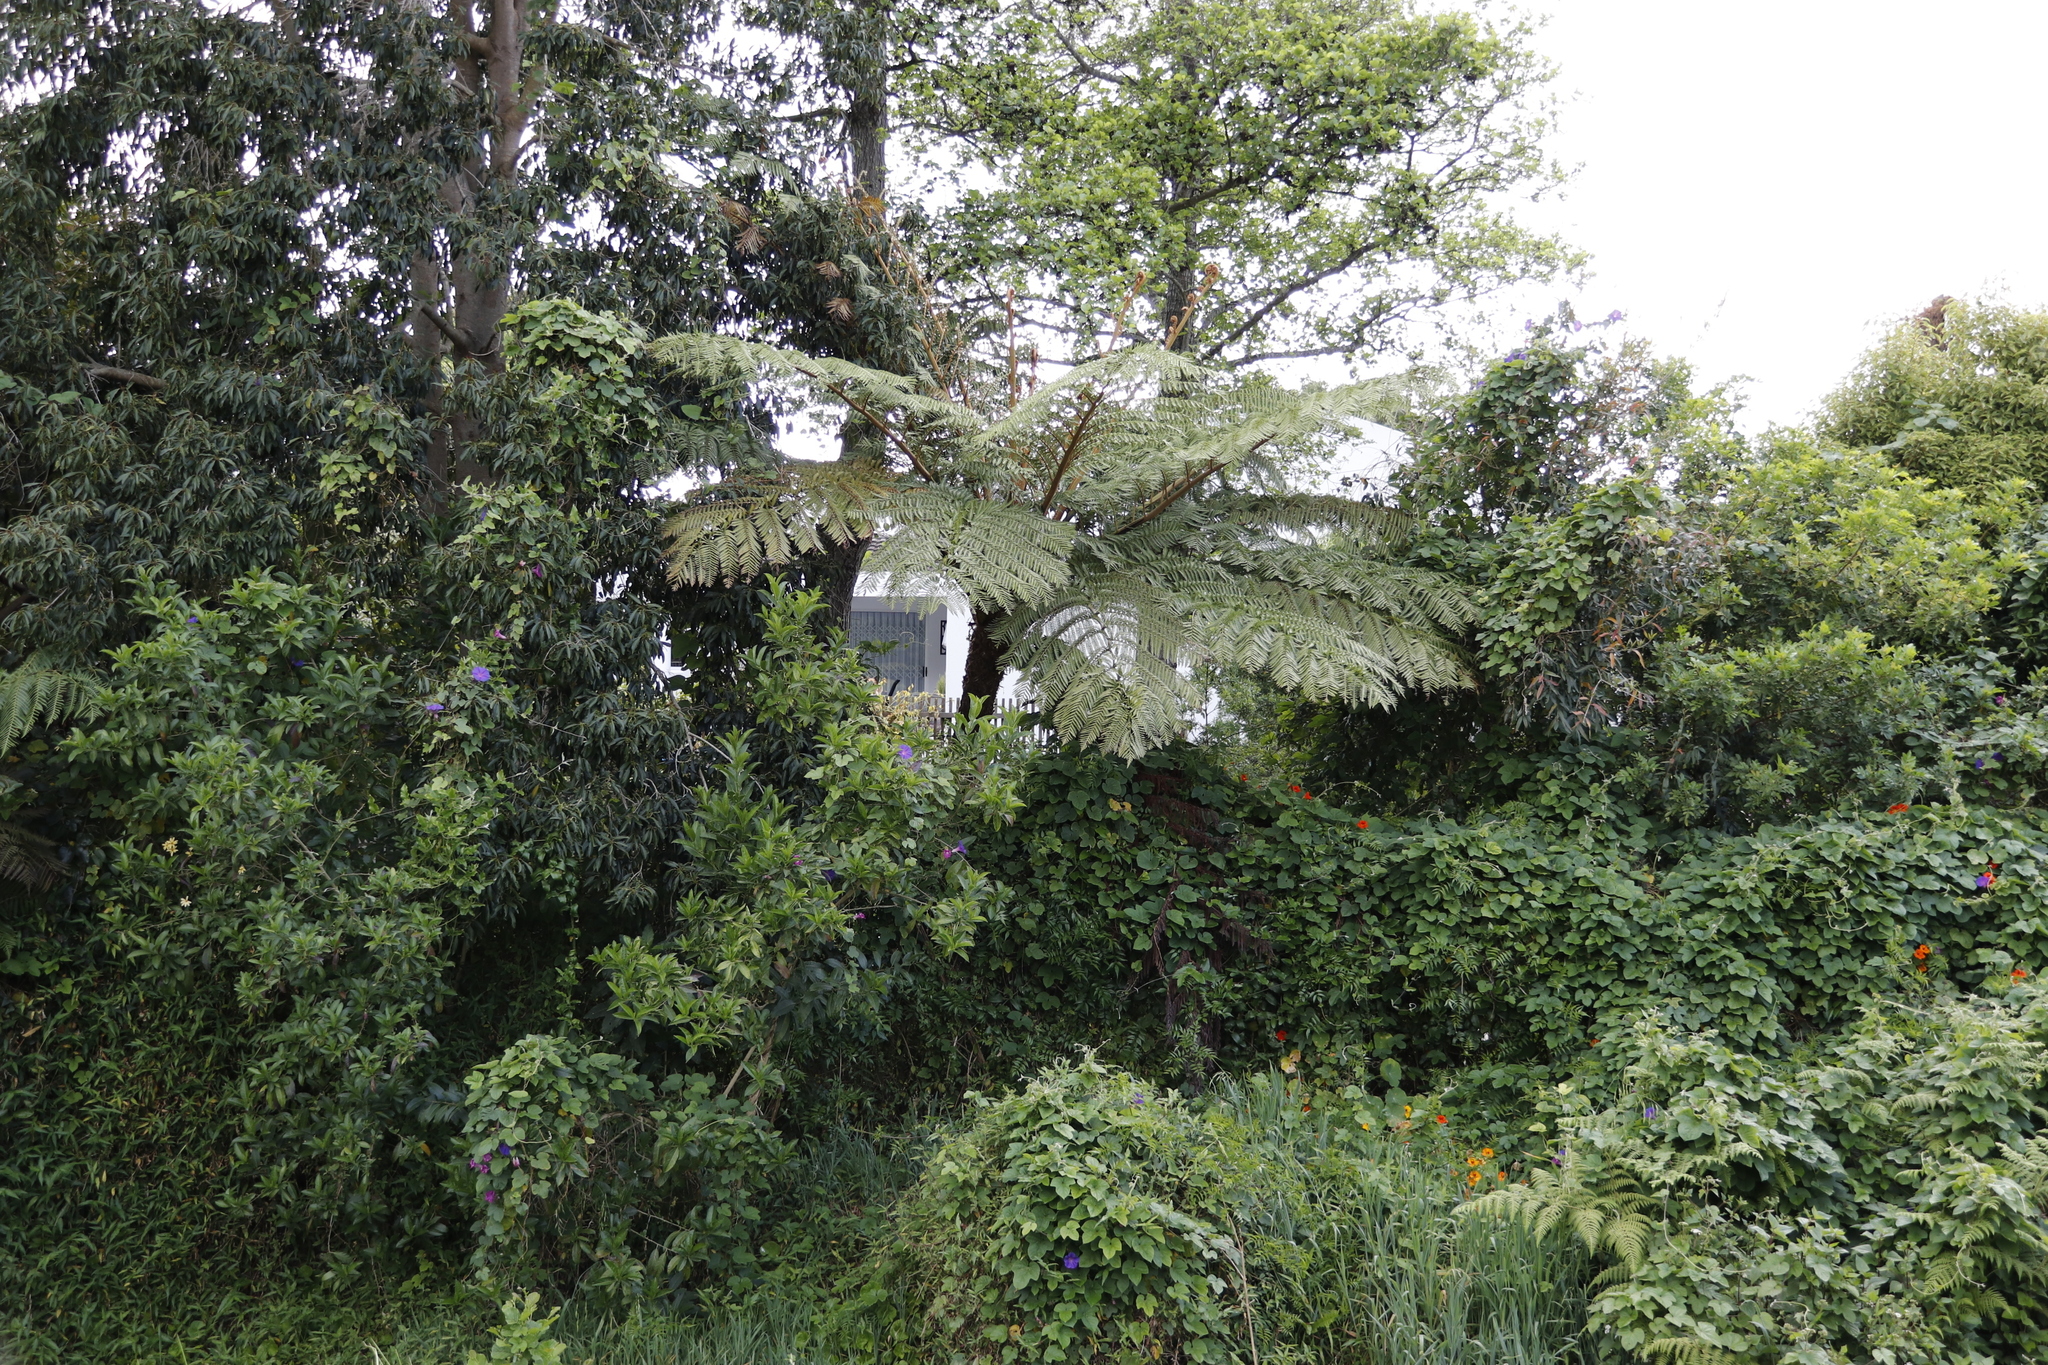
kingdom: Plantae
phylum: Tracheophyta
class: Polypodiopsida
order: Cyatheales
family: Cyatheaceae
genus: Sphaeropteris
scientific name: Sphaeropteris cooperi
